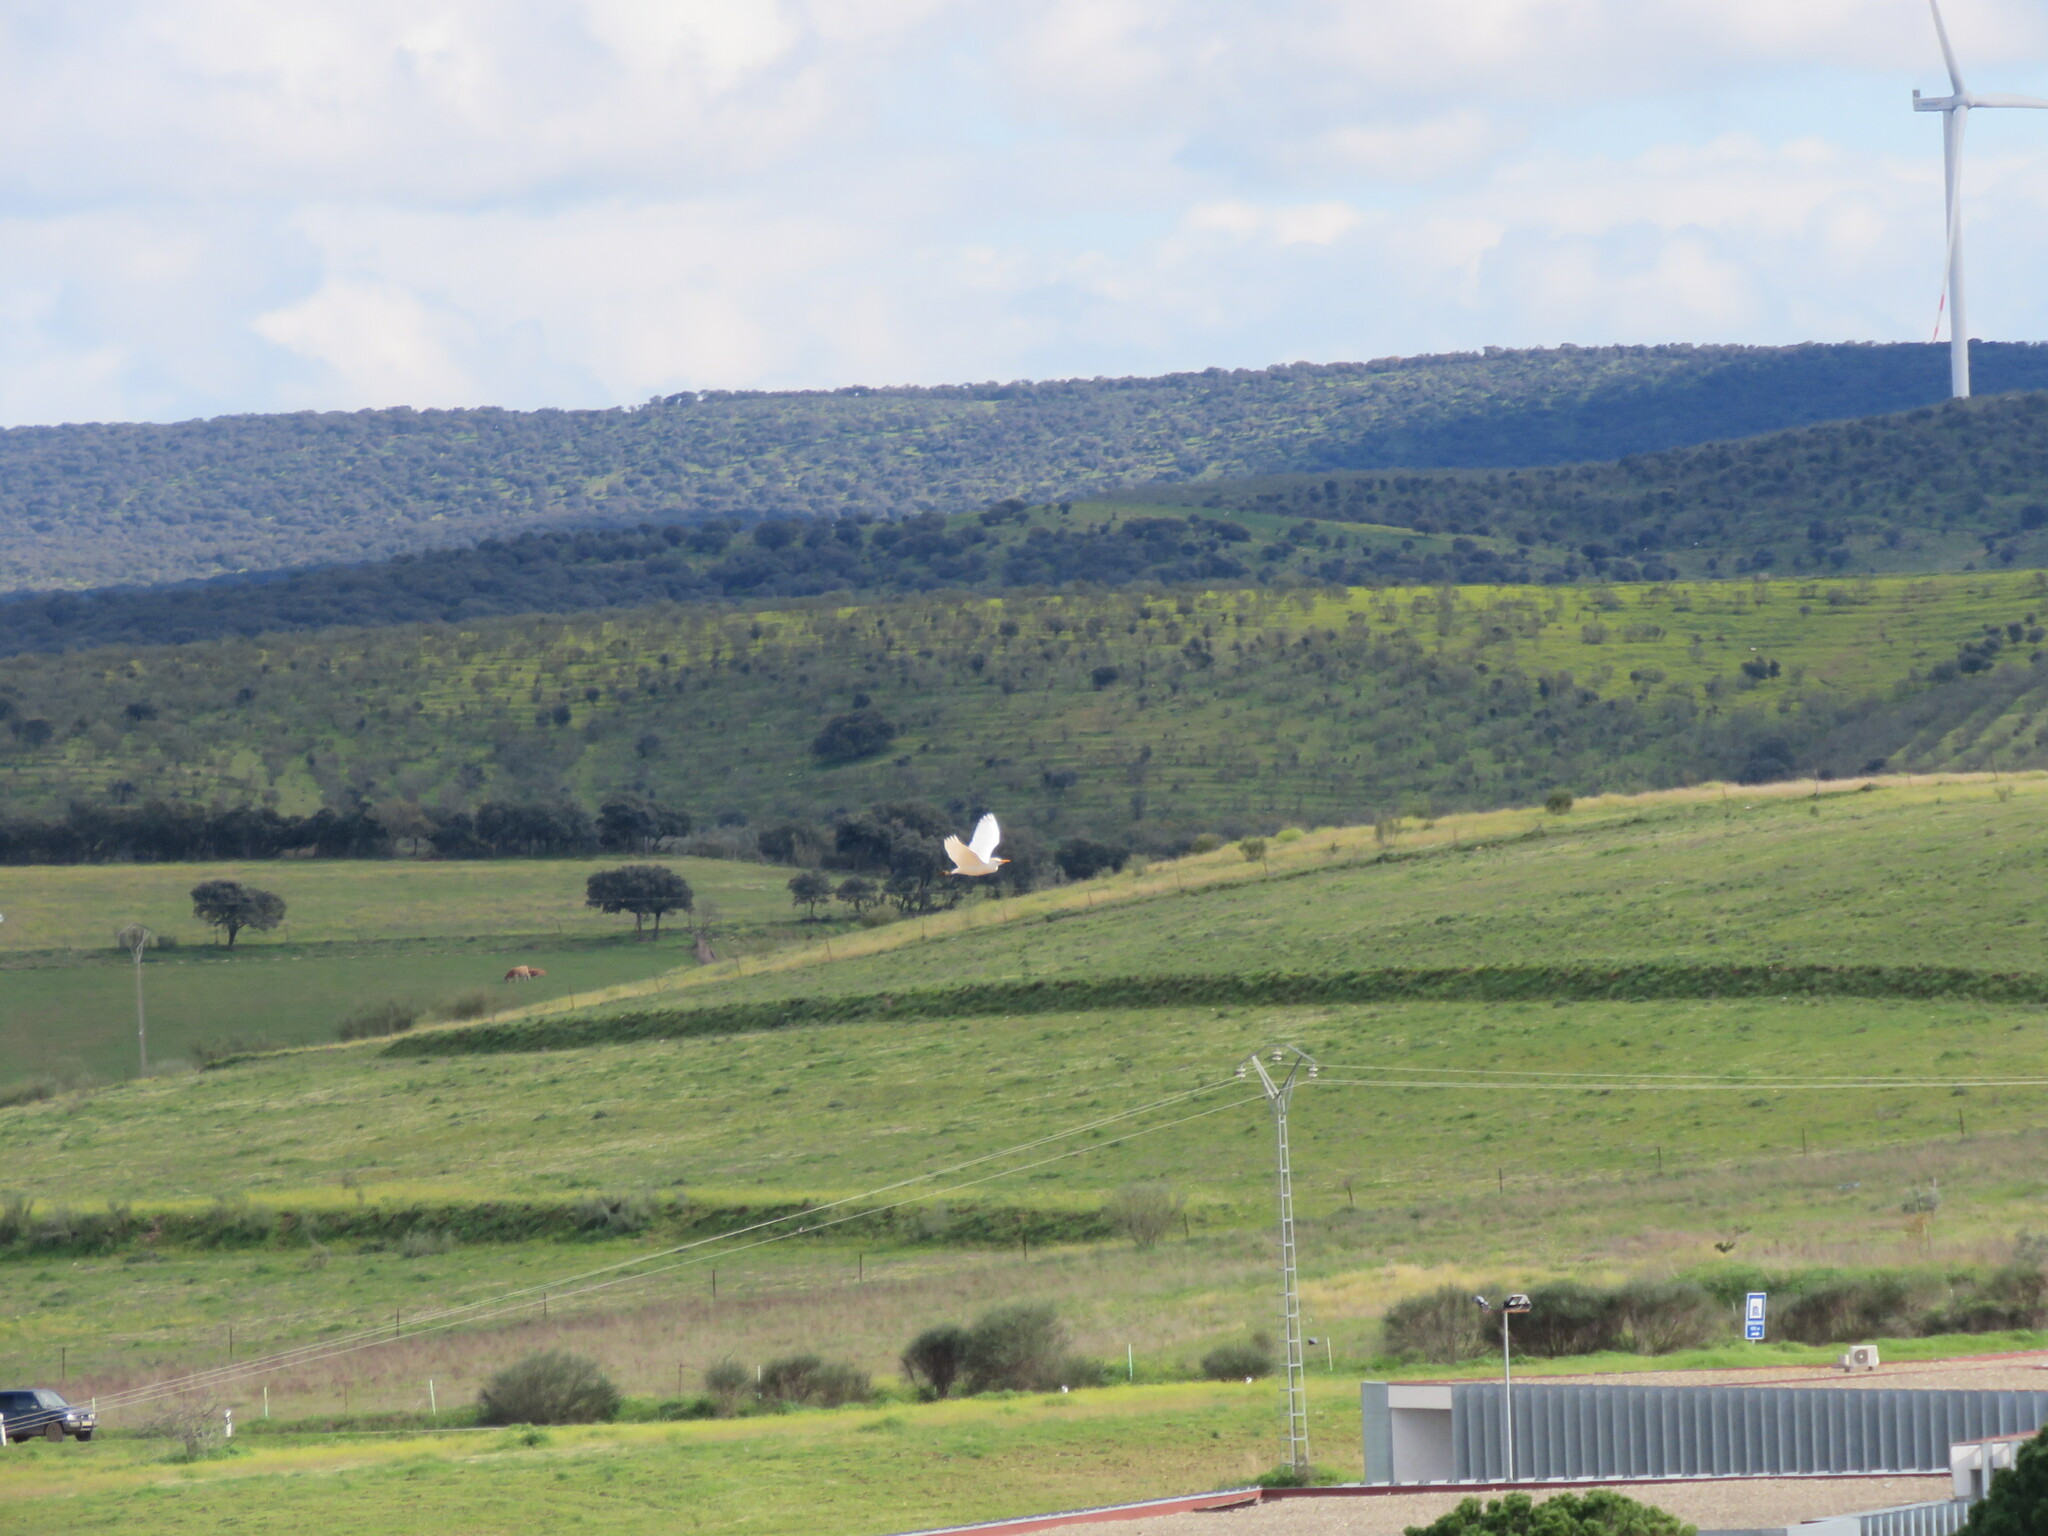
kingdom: Animalia
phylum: Chordata
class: Aves
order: Pelecaniformes
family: Ardeidae
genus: Bubulcus
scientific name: Bubulcus ibis
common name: Cattle egret
